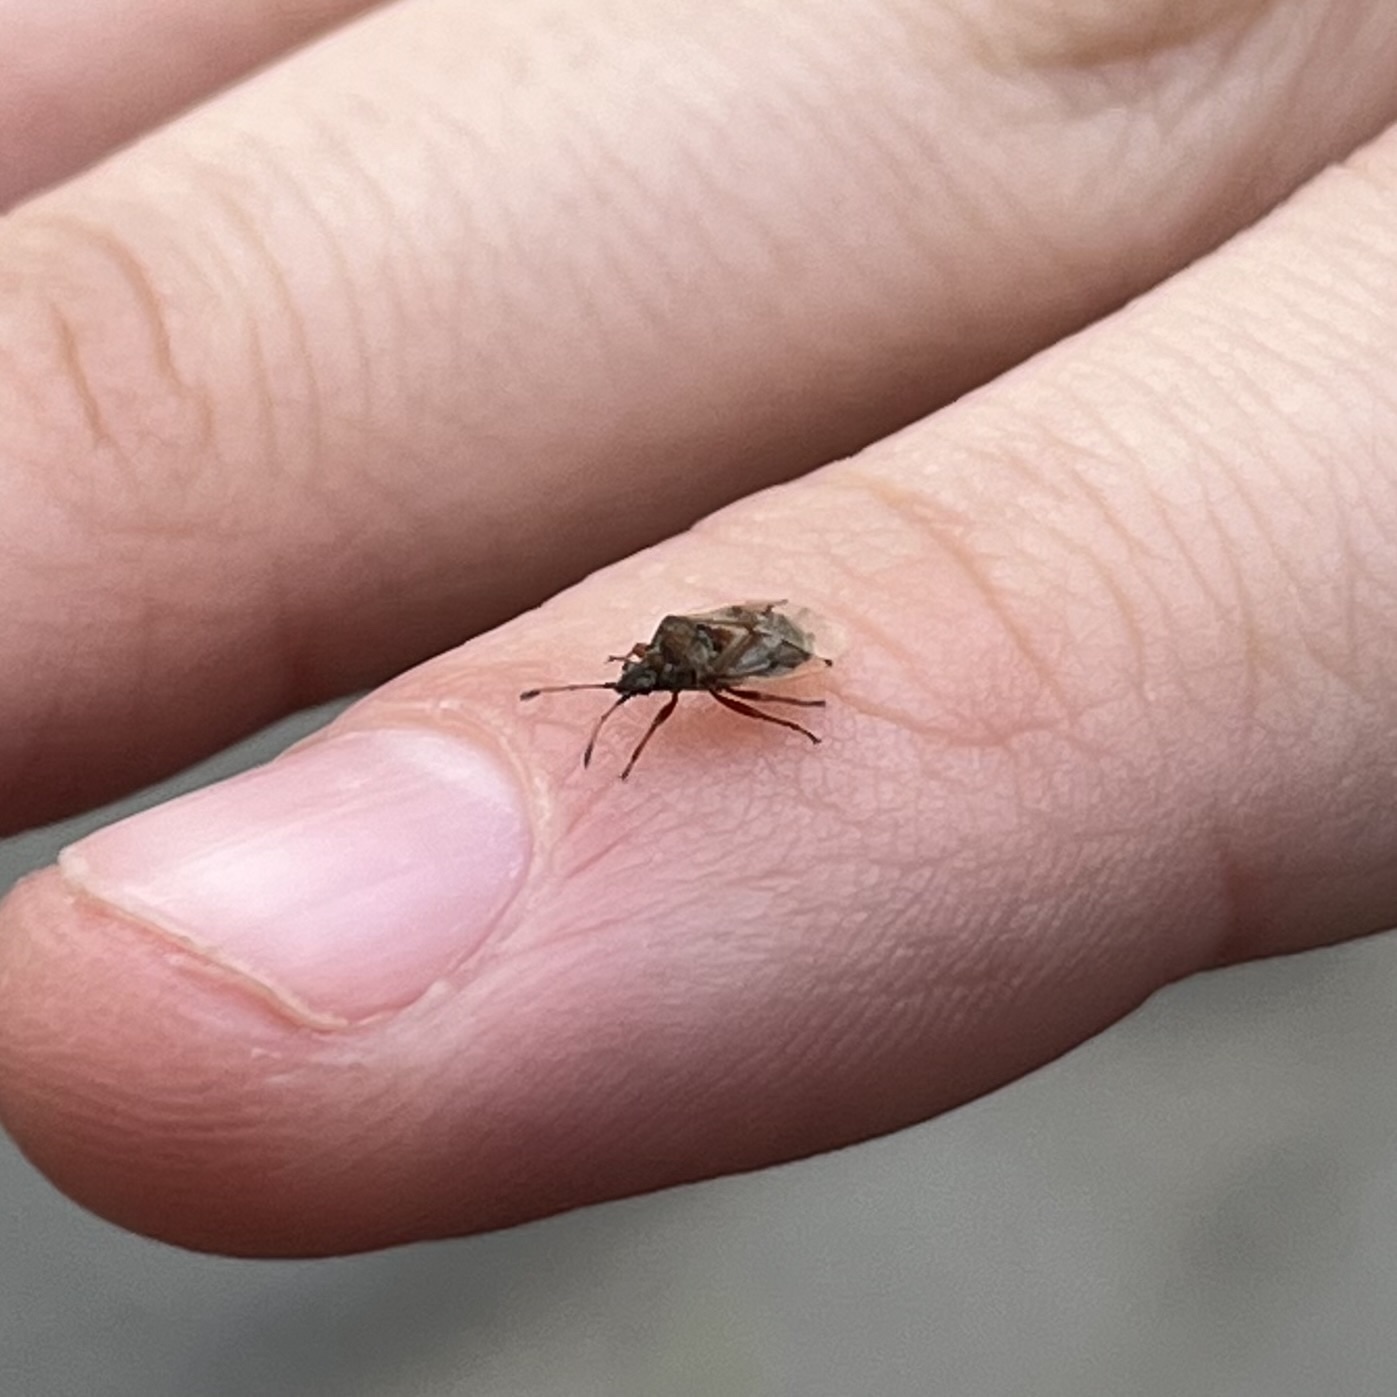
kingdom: Animalia
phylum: Arthropoda
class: Insecta
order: Hemiptera
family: Lygaeidae
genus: Kleidocerys
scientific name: Kleidocerys resedae
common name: Birch catkin bug
